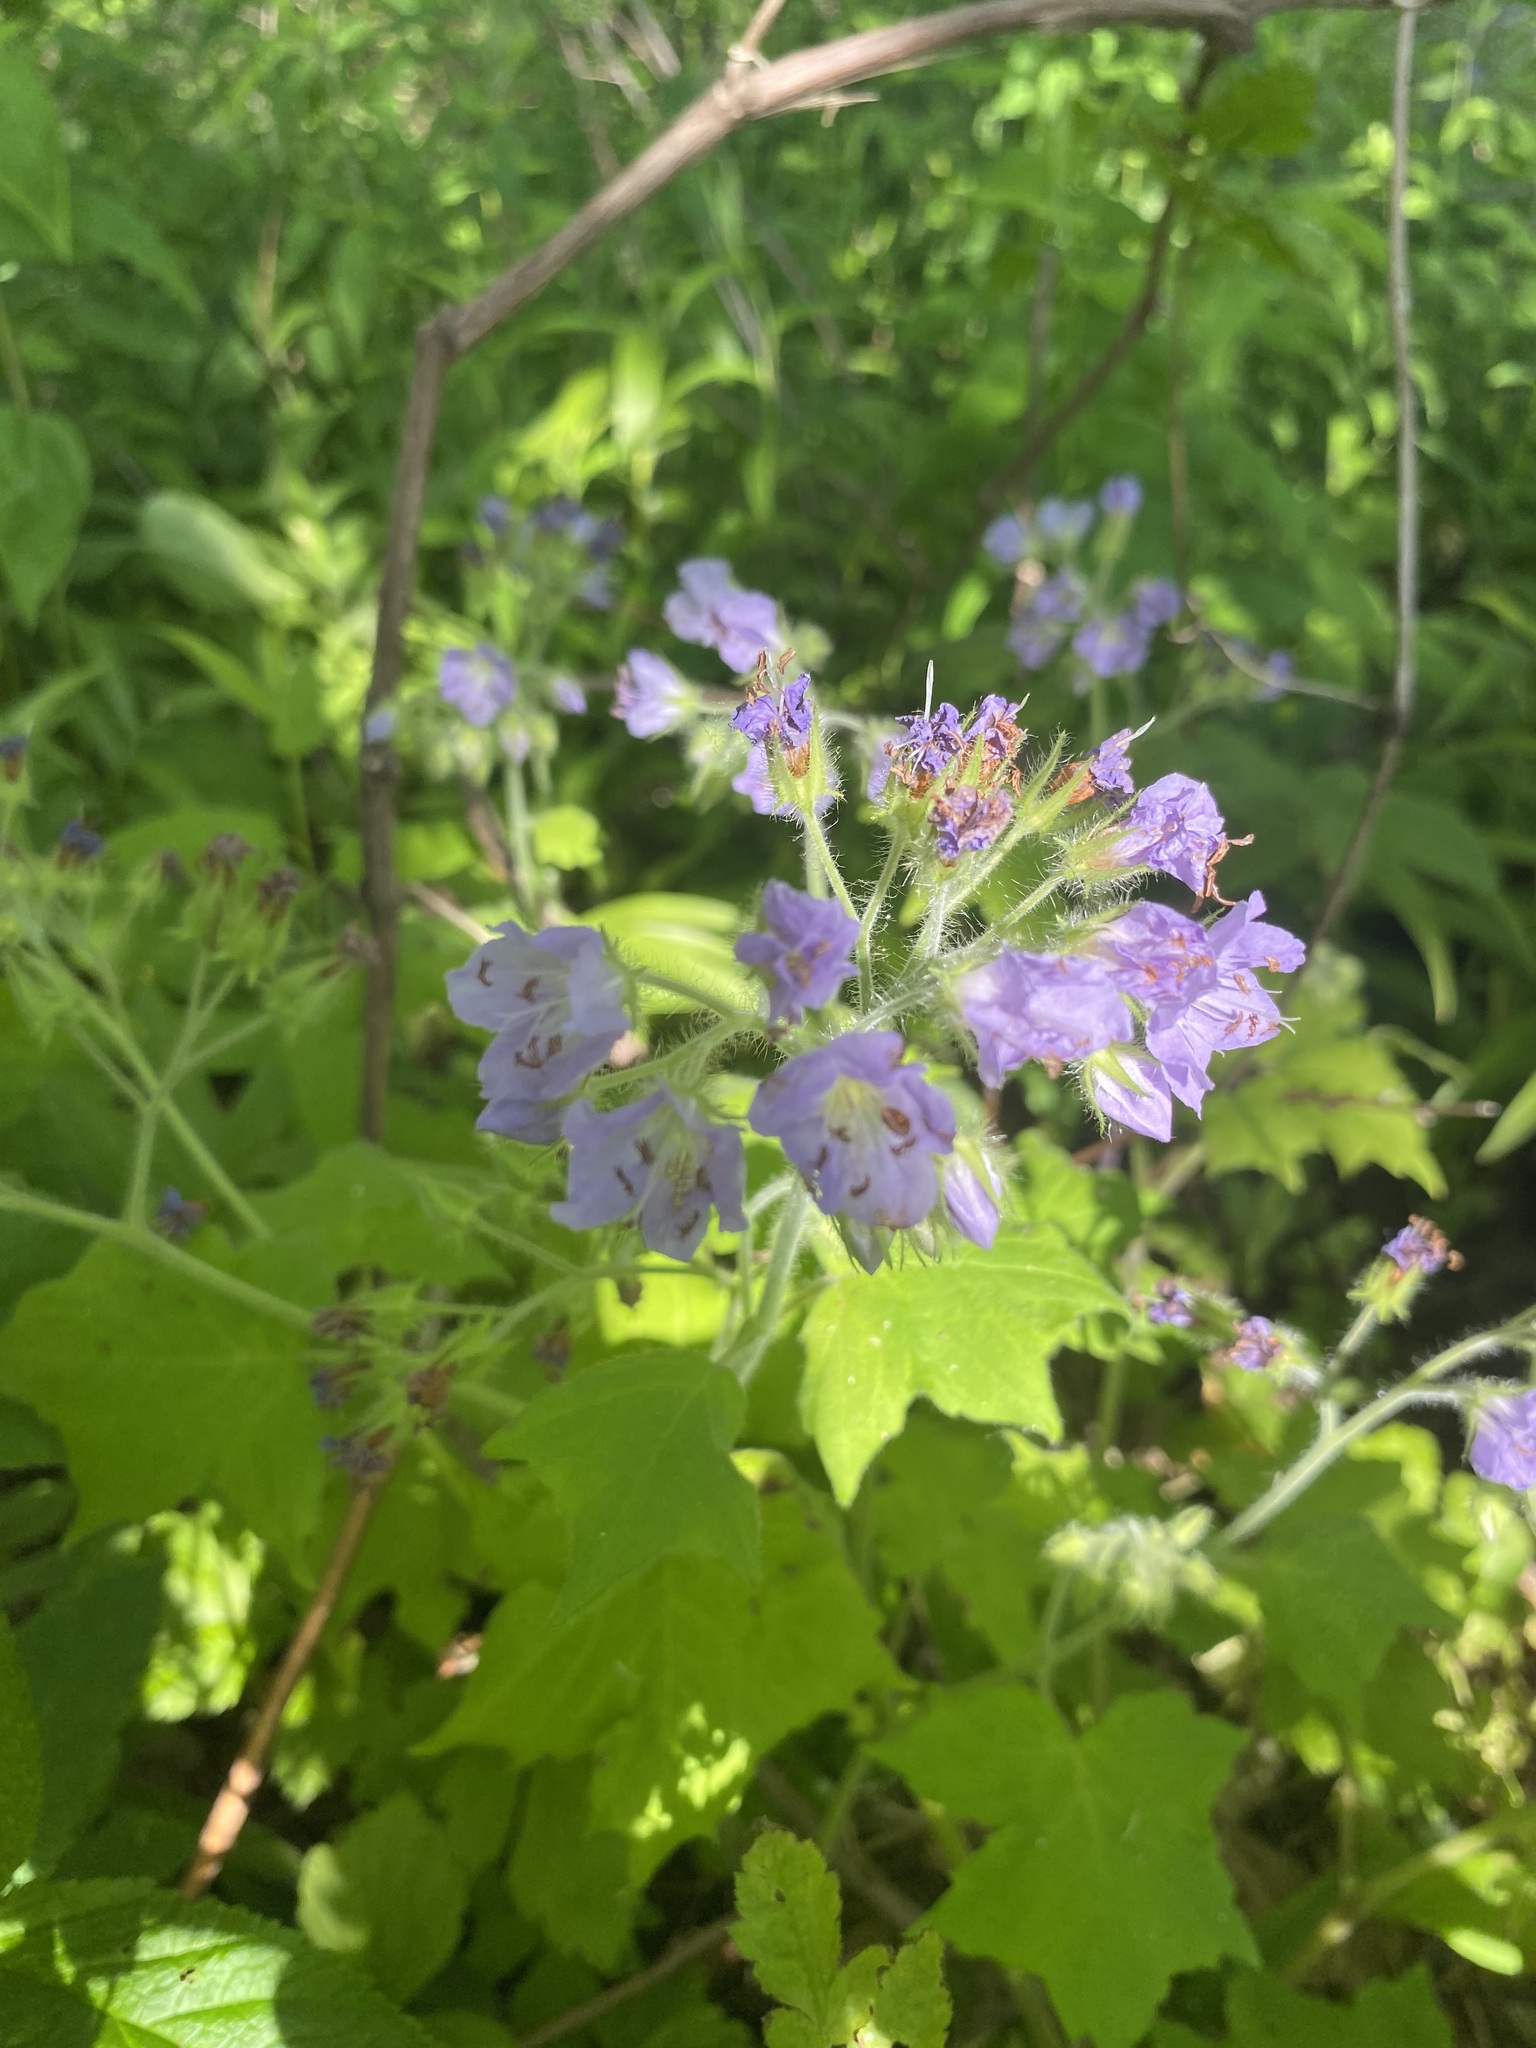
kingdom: Plantae
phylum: Tracheophyta
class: Magnoliopsida
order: Boraginales
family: Hydrophyllaceae
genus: Hydrophyllum
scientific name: Hydrophyllum appendiculatum
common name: Appendaged waterleaf
